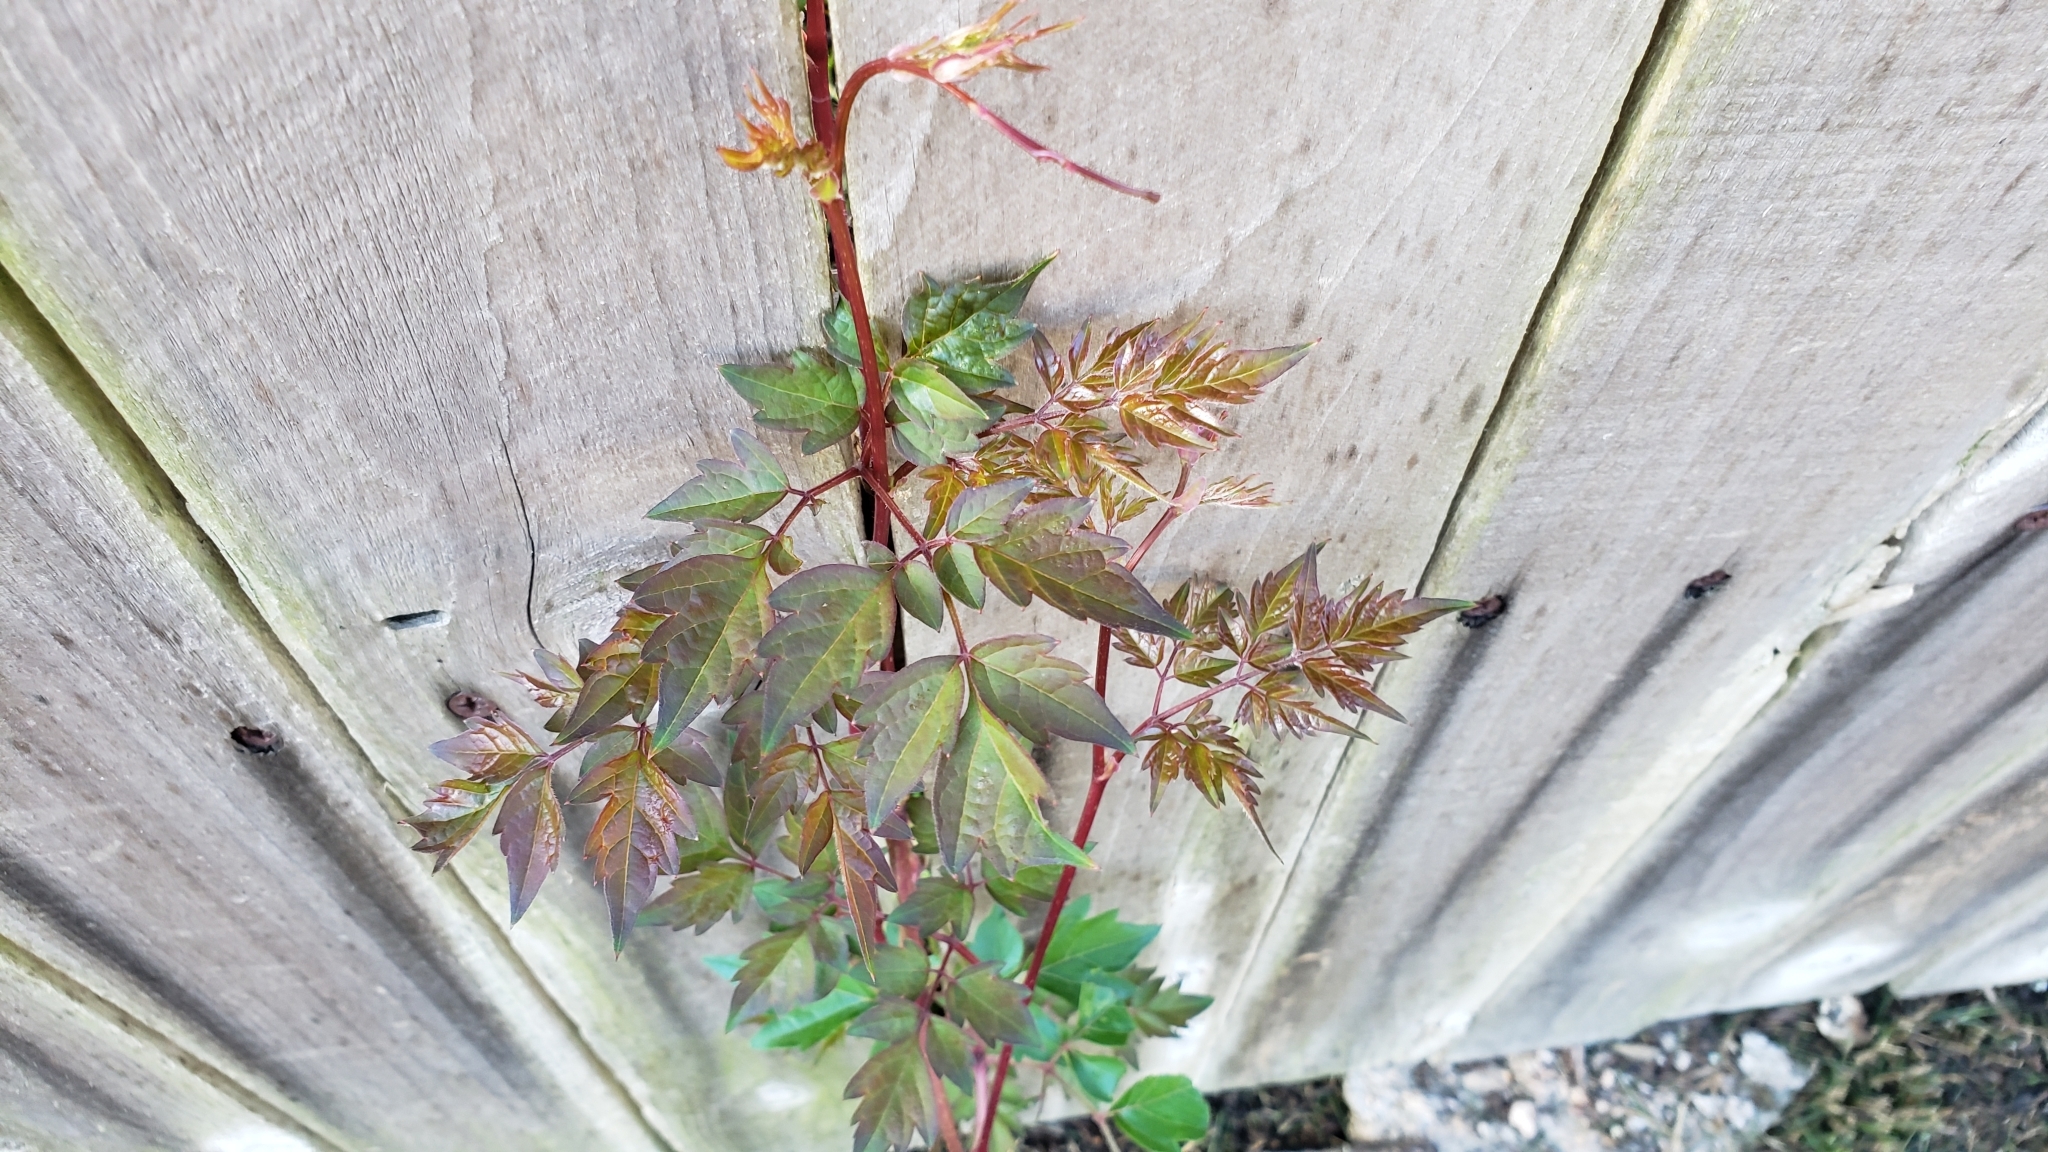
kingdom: Plantae
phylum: Tracheophyta
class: Magnoliopsida
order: Vitales
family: Vitaceae
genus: Nekemias
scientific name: Nekemias arborea
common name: Peppervine
